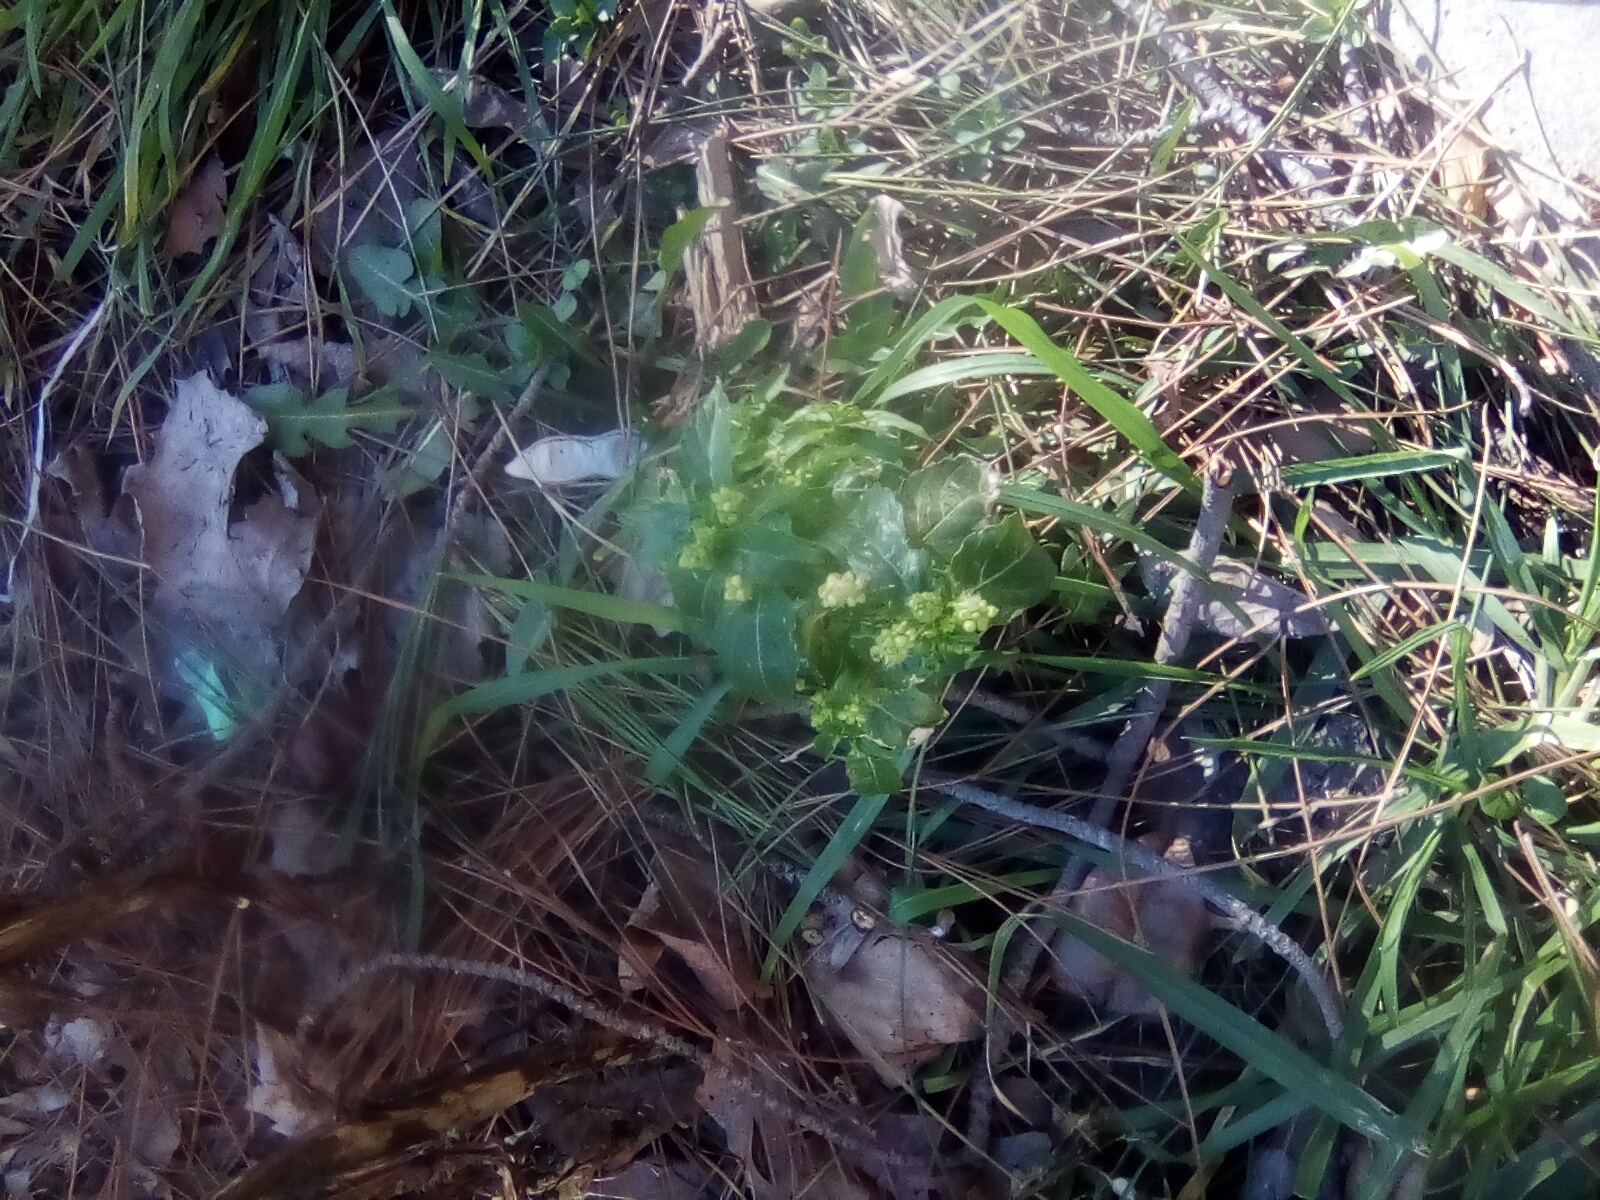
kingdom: Plantae
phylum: Tracheophyta
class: Magnoliopsida
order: Malpighiales
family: Euphorbiaceae
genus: Mercurialis
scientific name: Mercurialis annua
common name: Annual mercury
